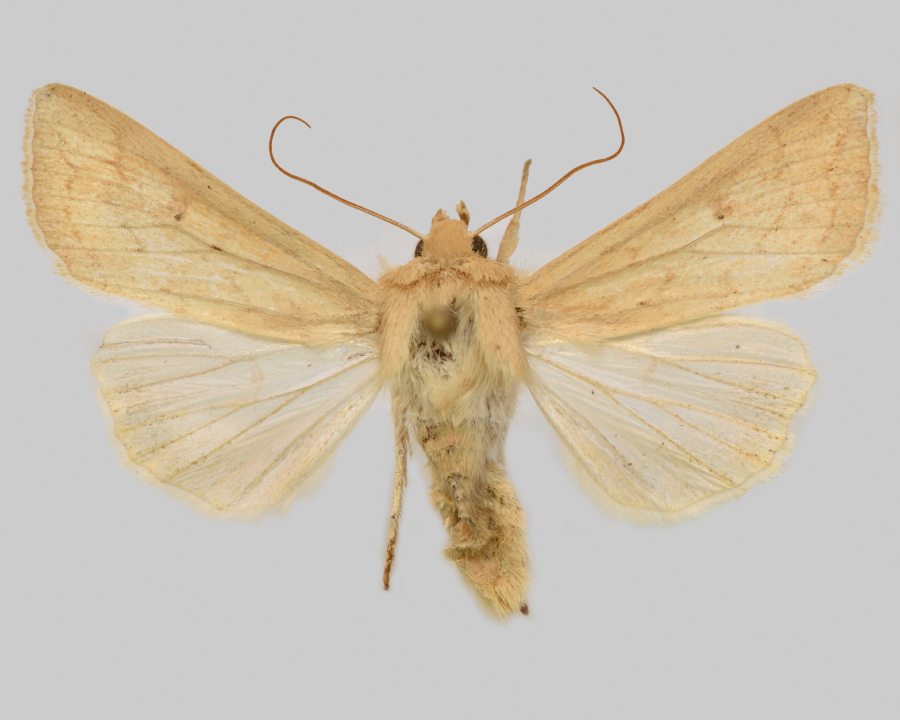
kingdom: Animalia
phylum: Arthropoda
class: Insecta
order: Lepidoptera
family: Noctuidae
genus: Mythimna
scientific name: Mythimna vitellina
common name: Delicate
